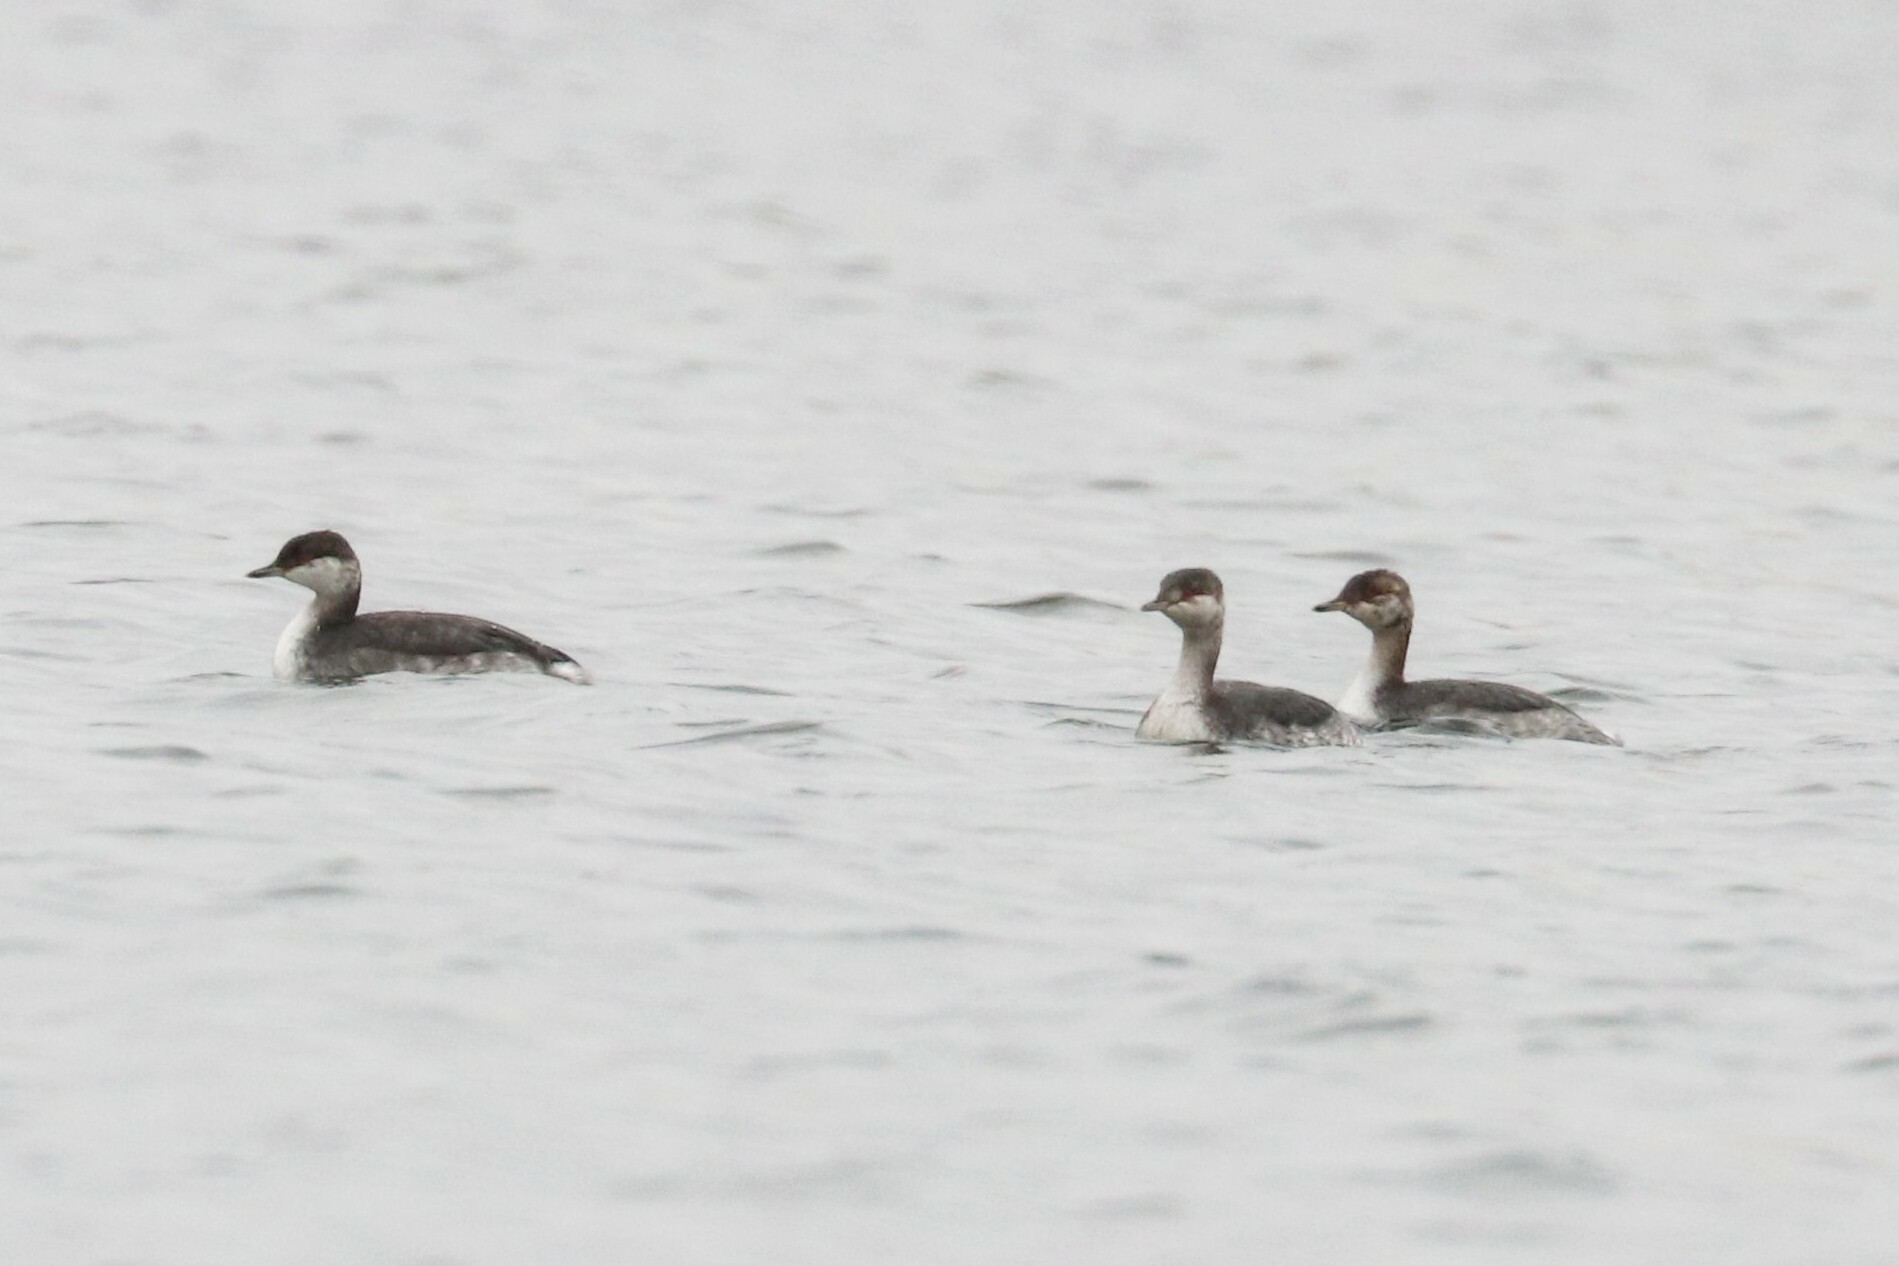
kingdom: Animalia
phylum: Chordata
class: Aves
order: Podicipediformes
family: Podicipedidae
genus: Podiceps
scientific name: Podiceps auritus
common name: Horned grebe
